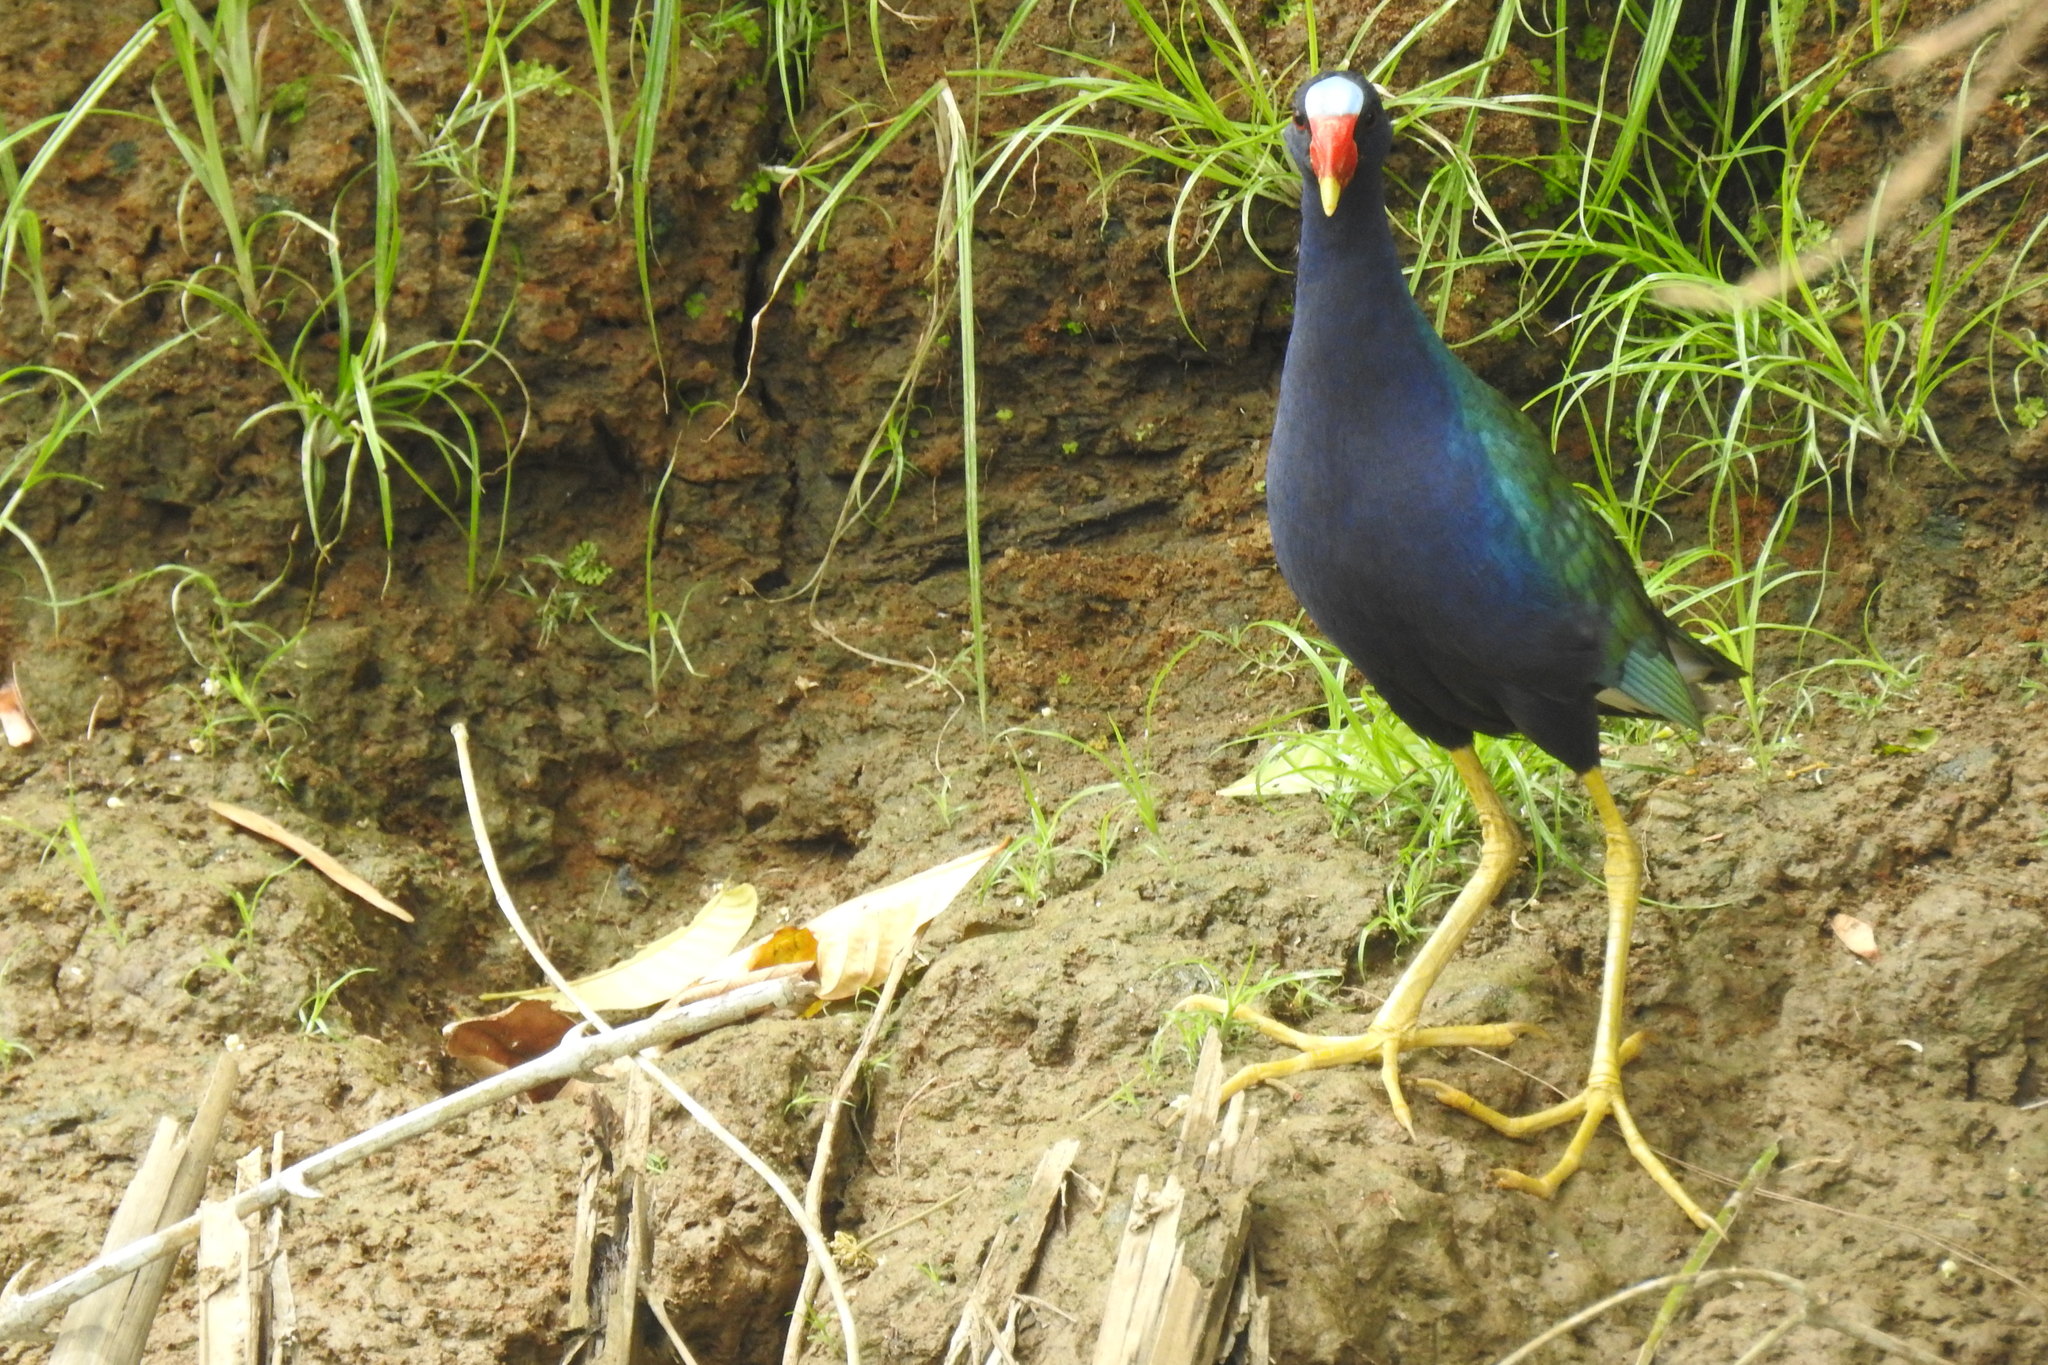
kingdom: Animalia
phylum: Chordata
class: Aves
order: Gruiformes
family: Rallidae
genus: Porphyrio
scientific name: Porphyrio martinica
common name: Purple gallinule
